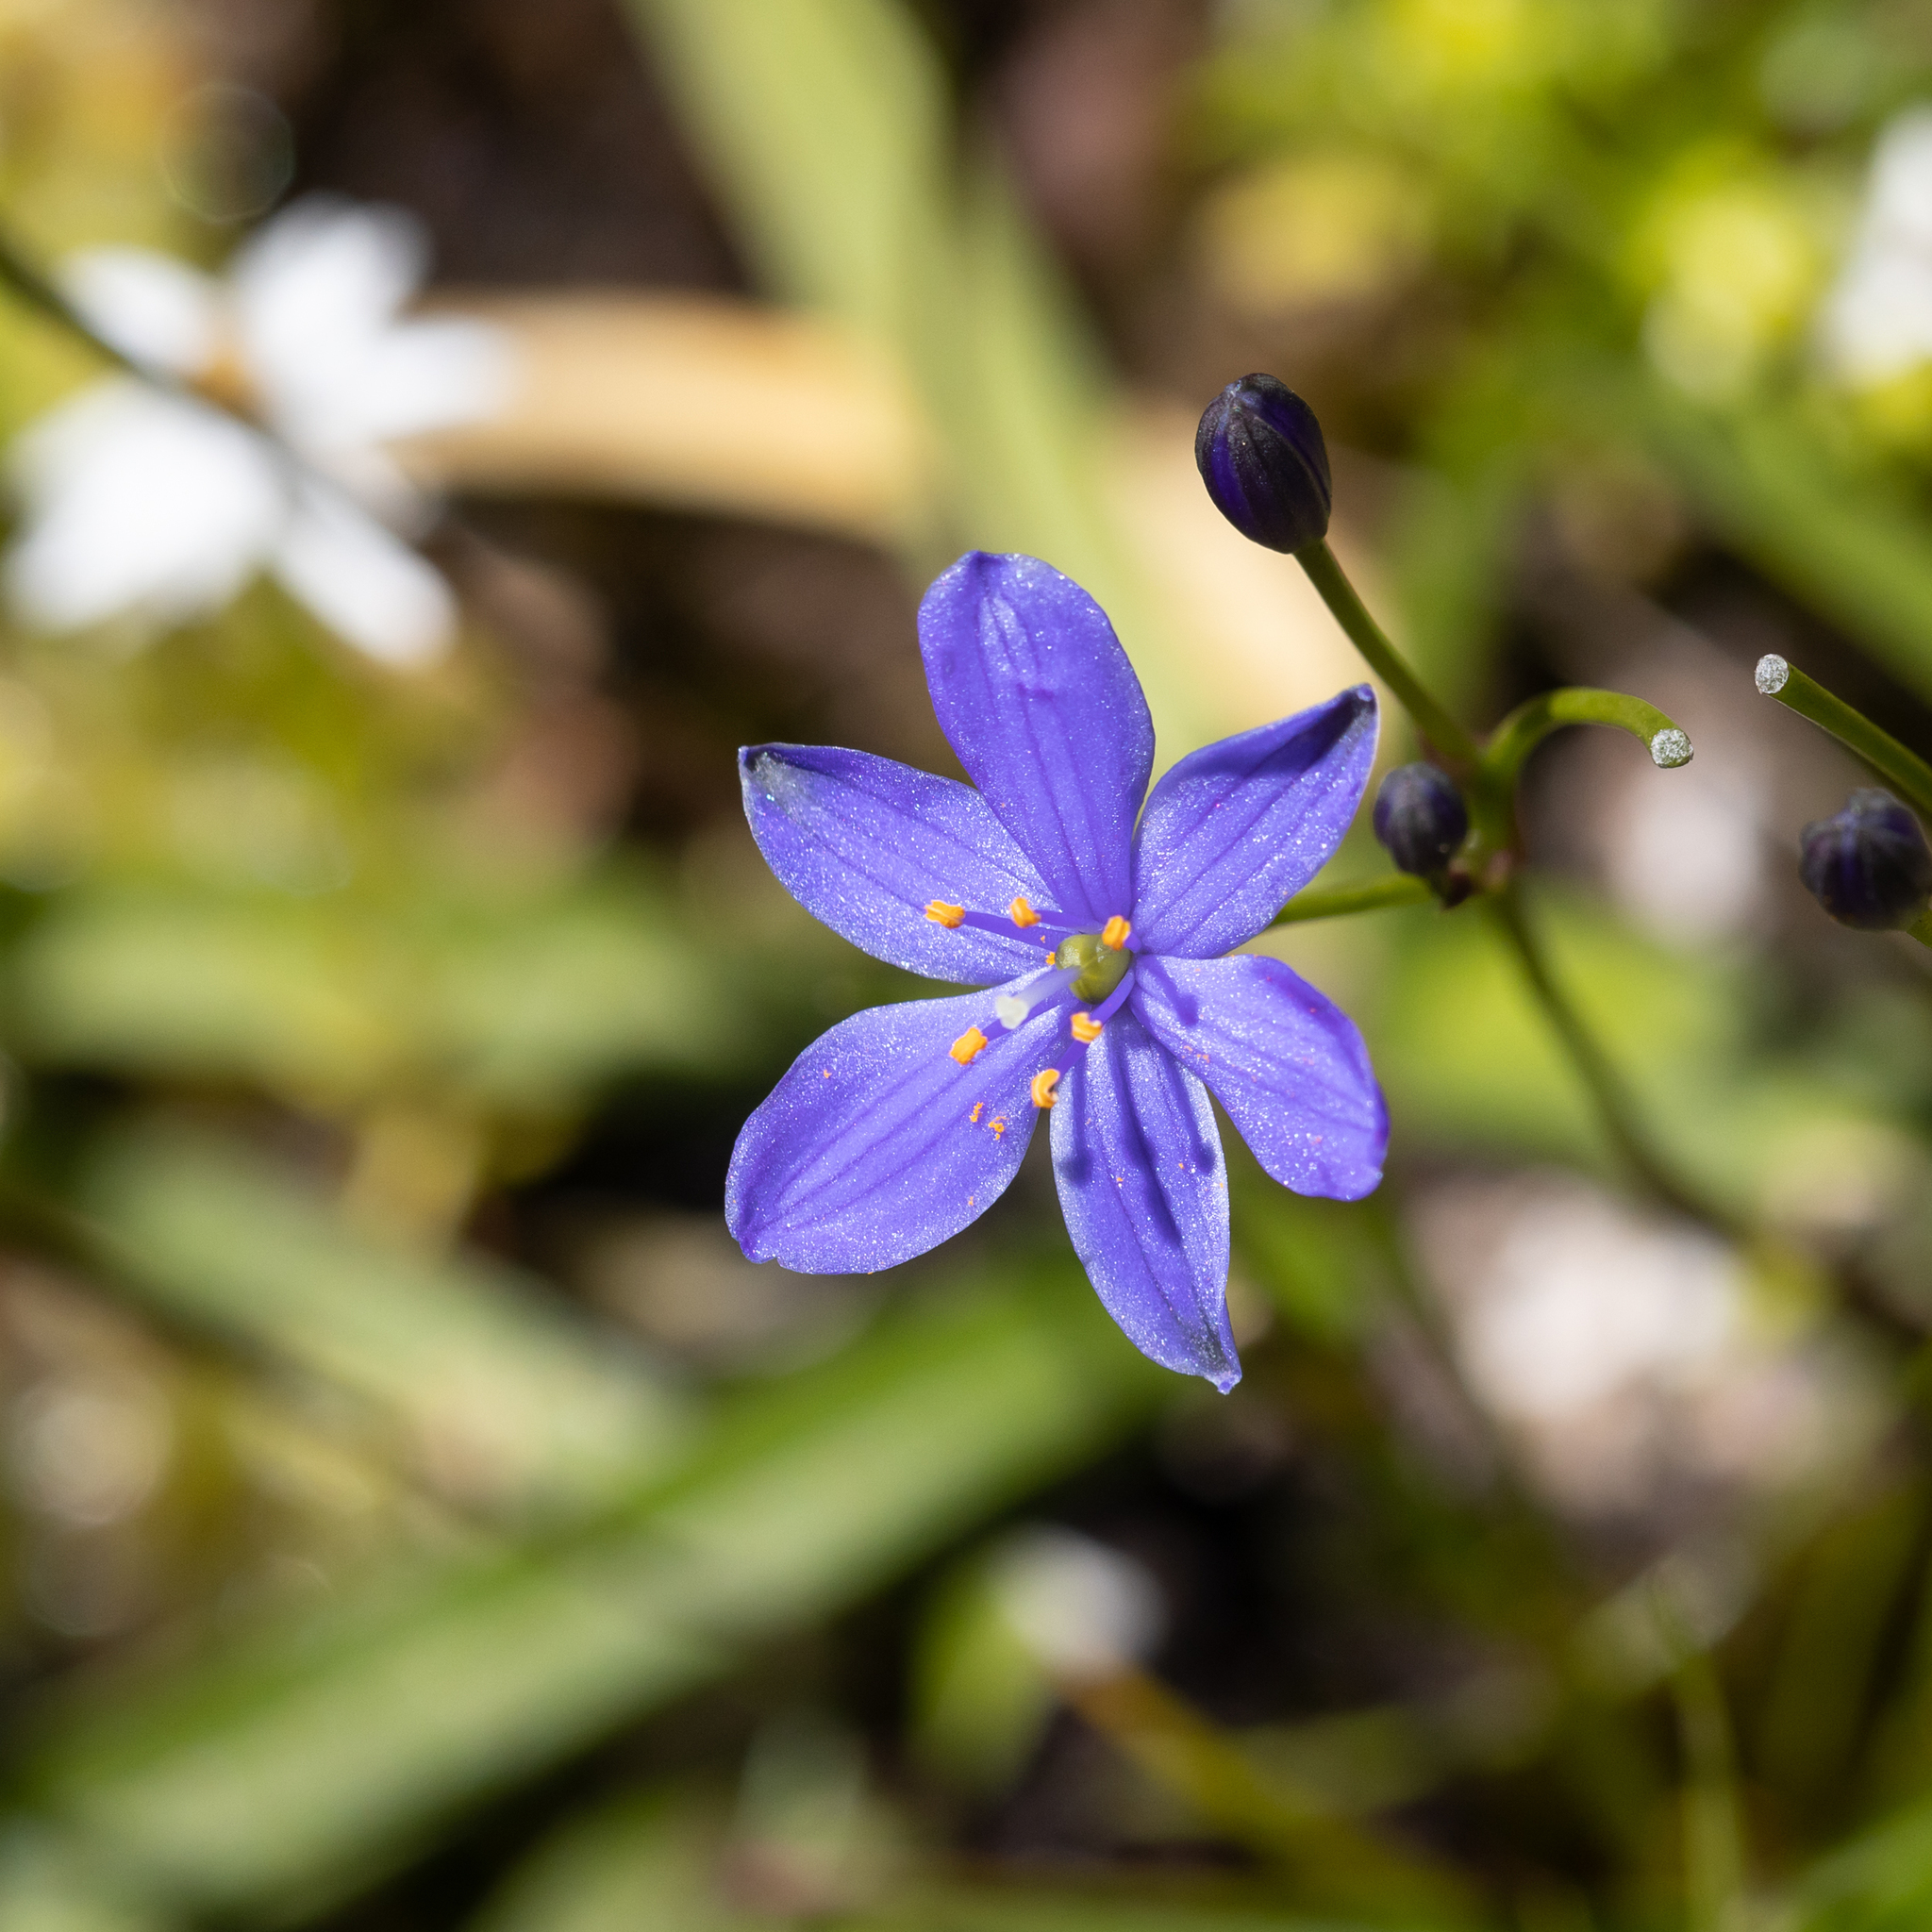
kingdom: Plantae
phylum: Tracheophyta
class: Liliopsida
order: Asparagales
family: Asphodelaceae
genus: Chamaescilla
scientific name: Chamaescilla corymbosa
